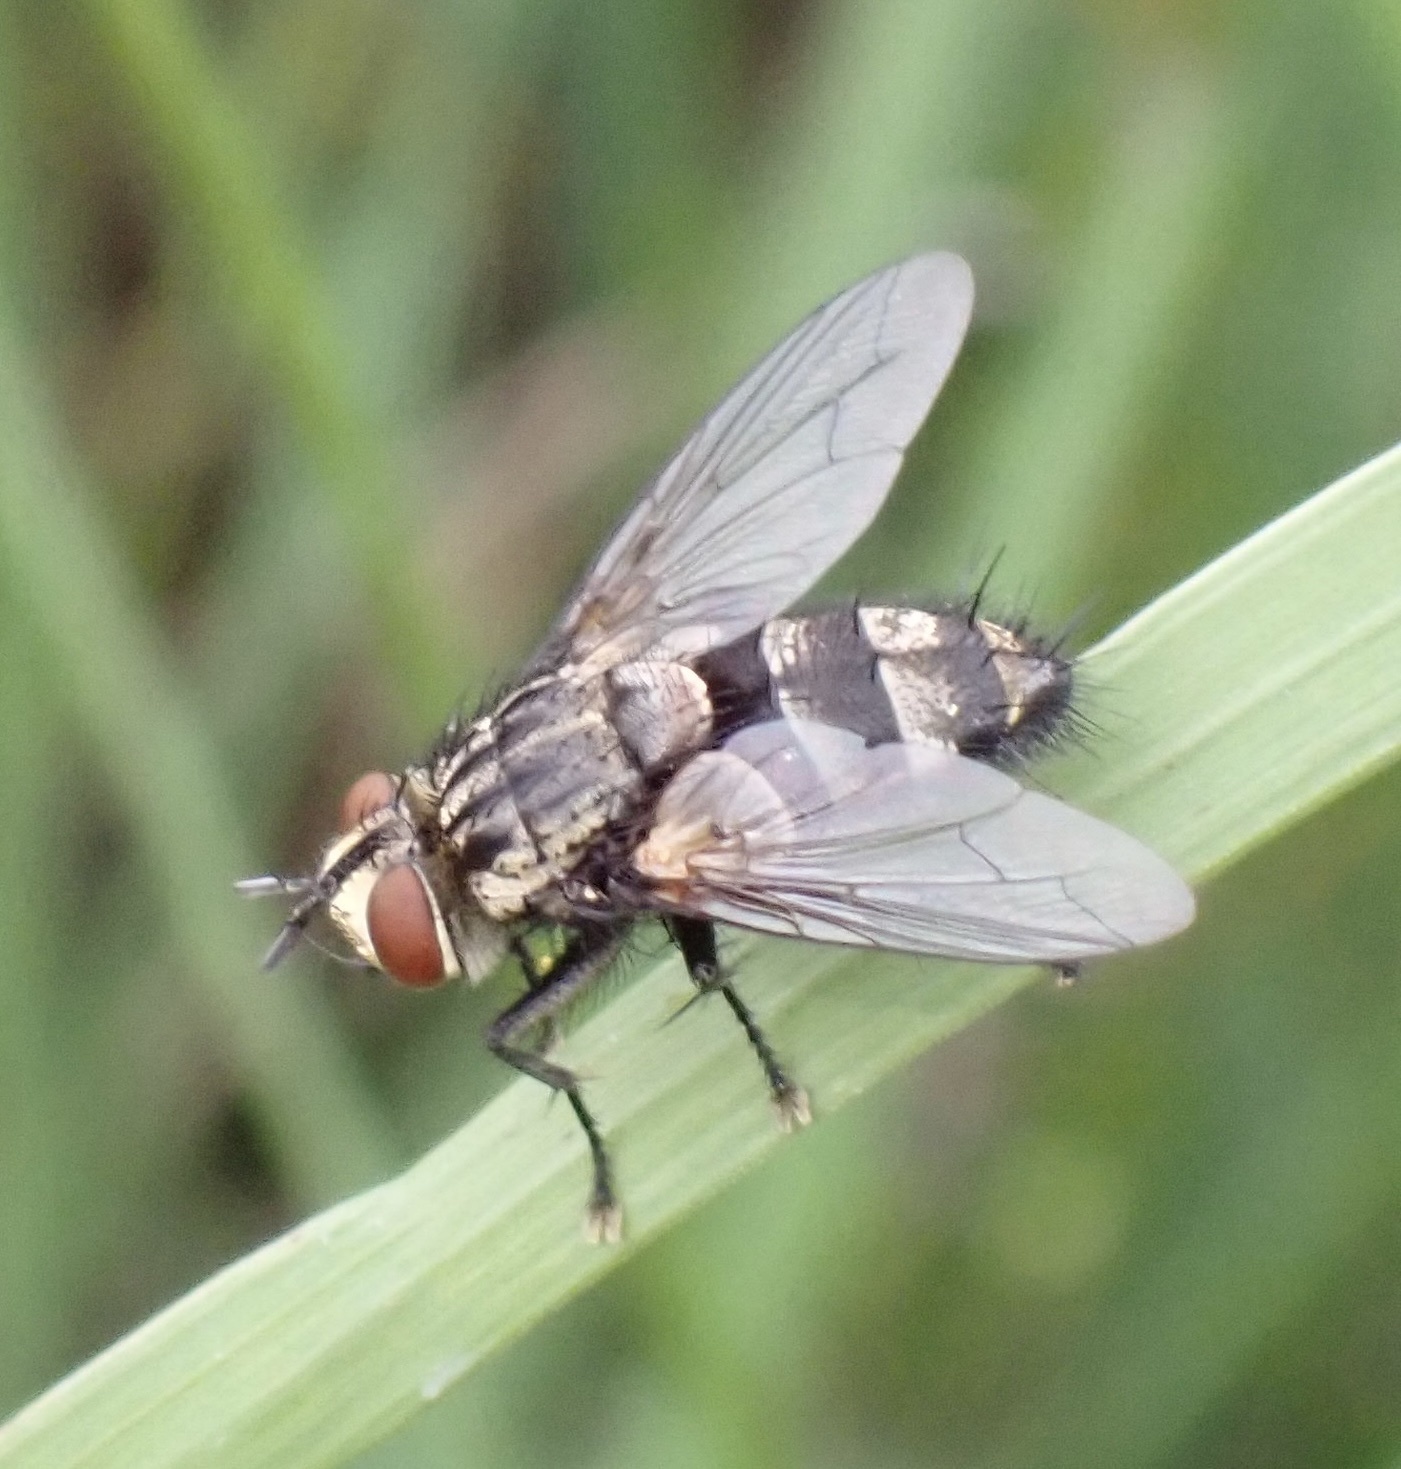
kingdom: Animalia
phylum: Arthropoda
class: Insecta
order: Diptera
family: Tachinidae
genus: Exorista
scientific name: Exorista larvarum
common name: Parasitic fly
